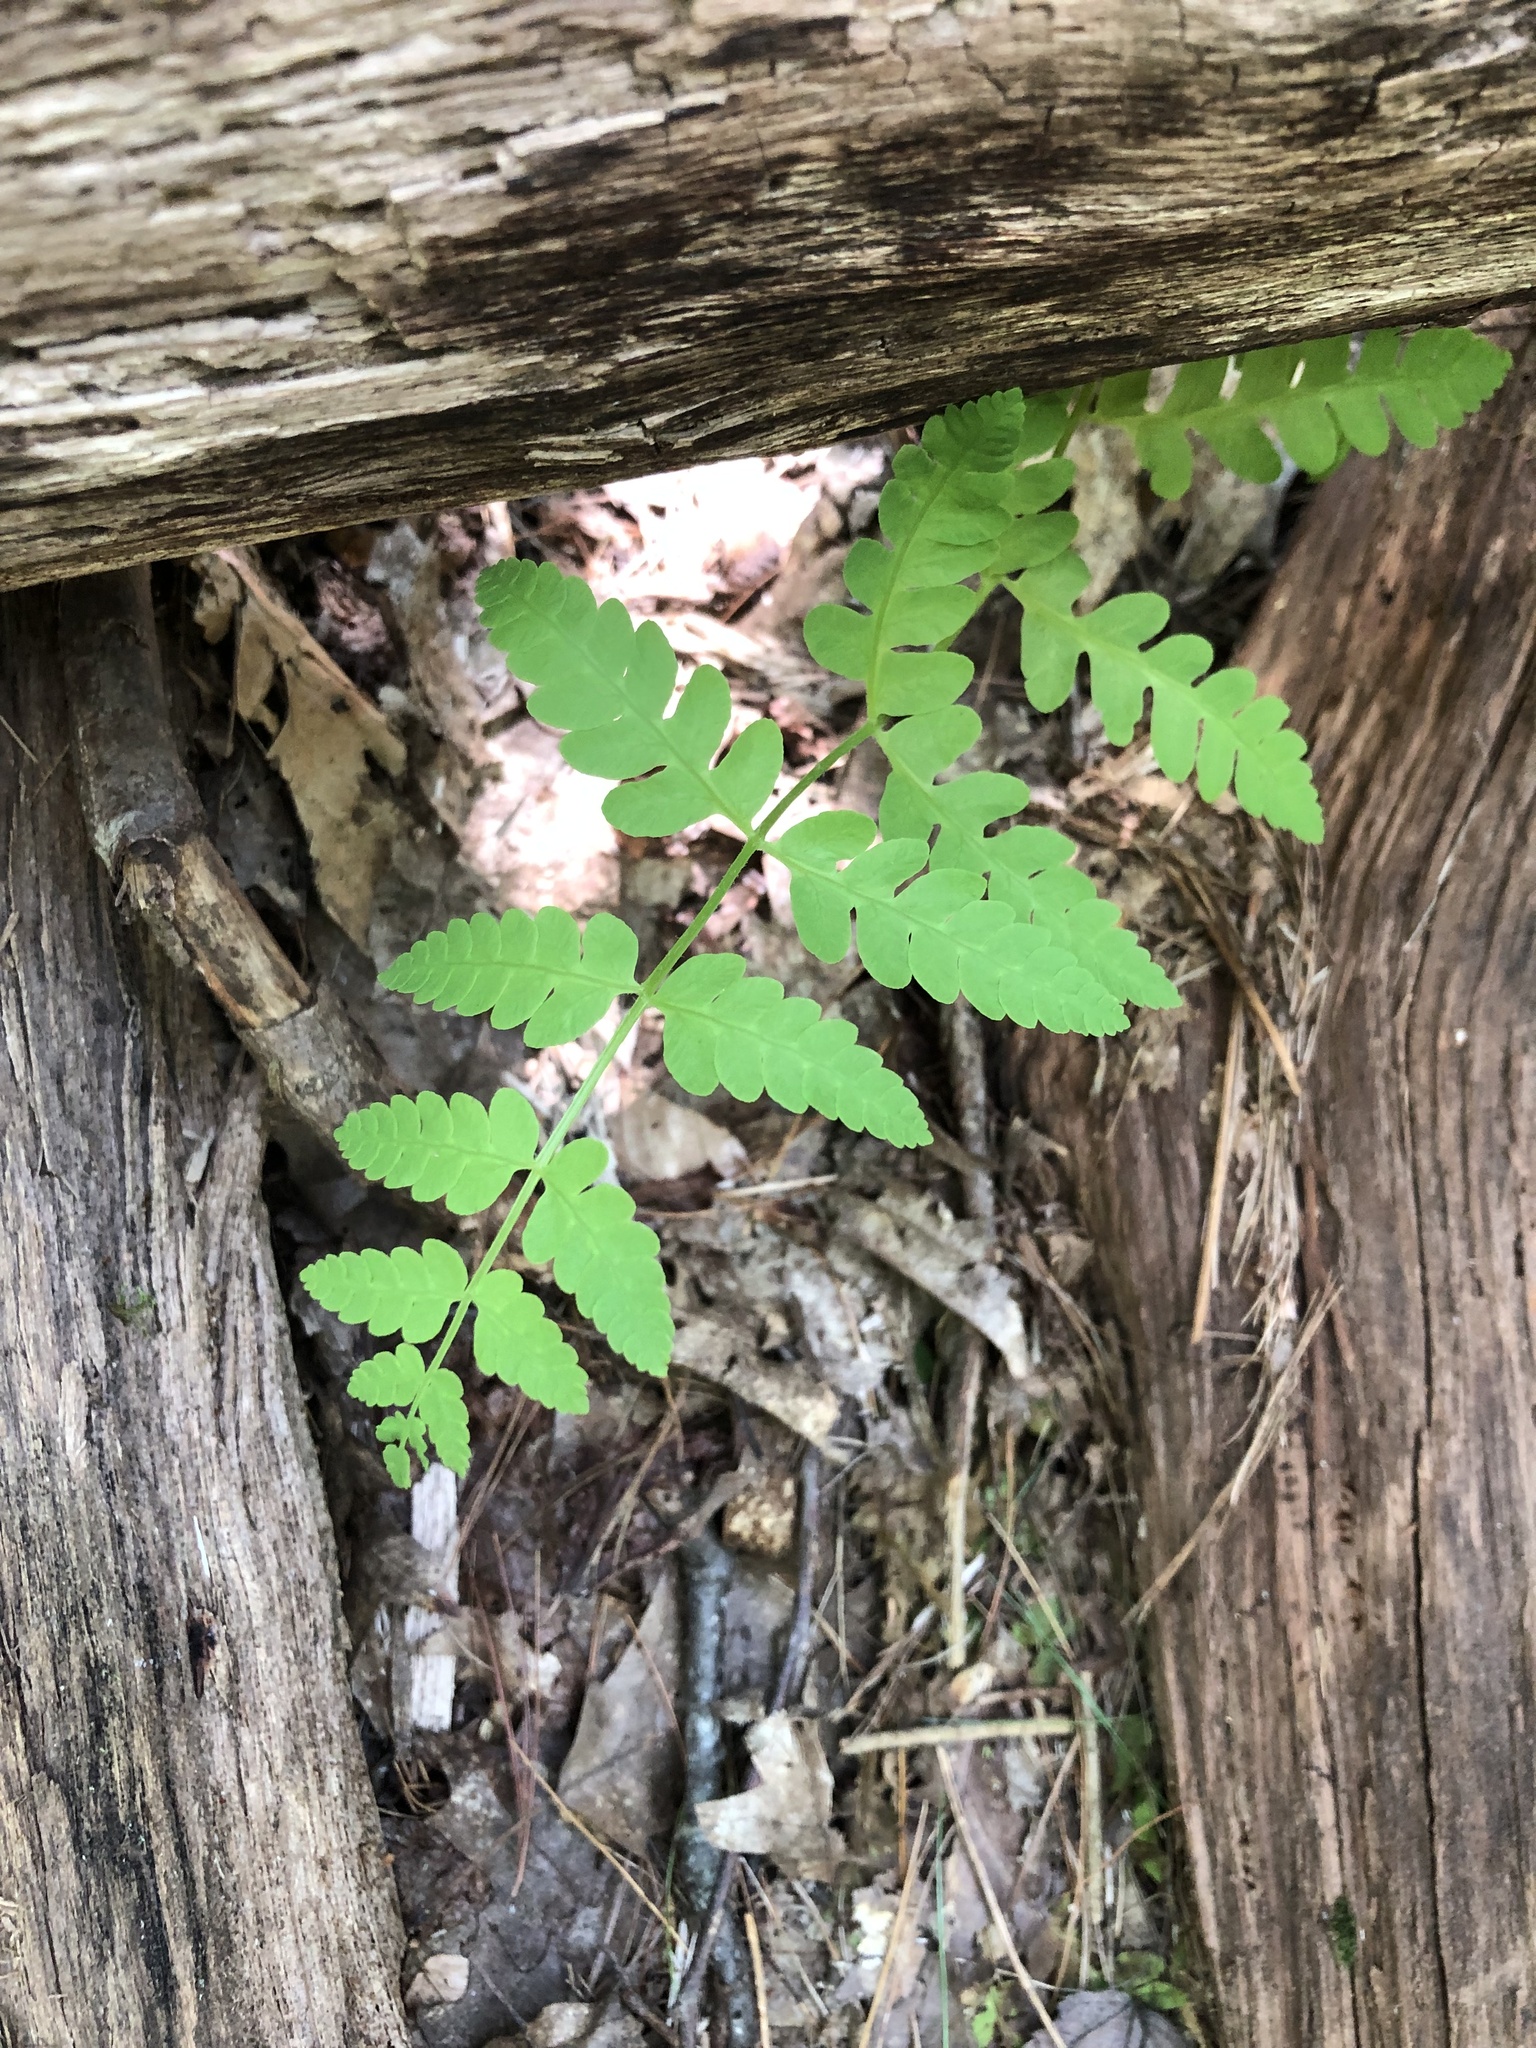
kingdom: Plantae
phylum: Tracheophyta
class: Polypodiopsida
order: Osmundales
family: Osmundaceae
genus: Claytosmunda
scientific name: Claytosmunda claytoniana
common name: Clayton's fern
